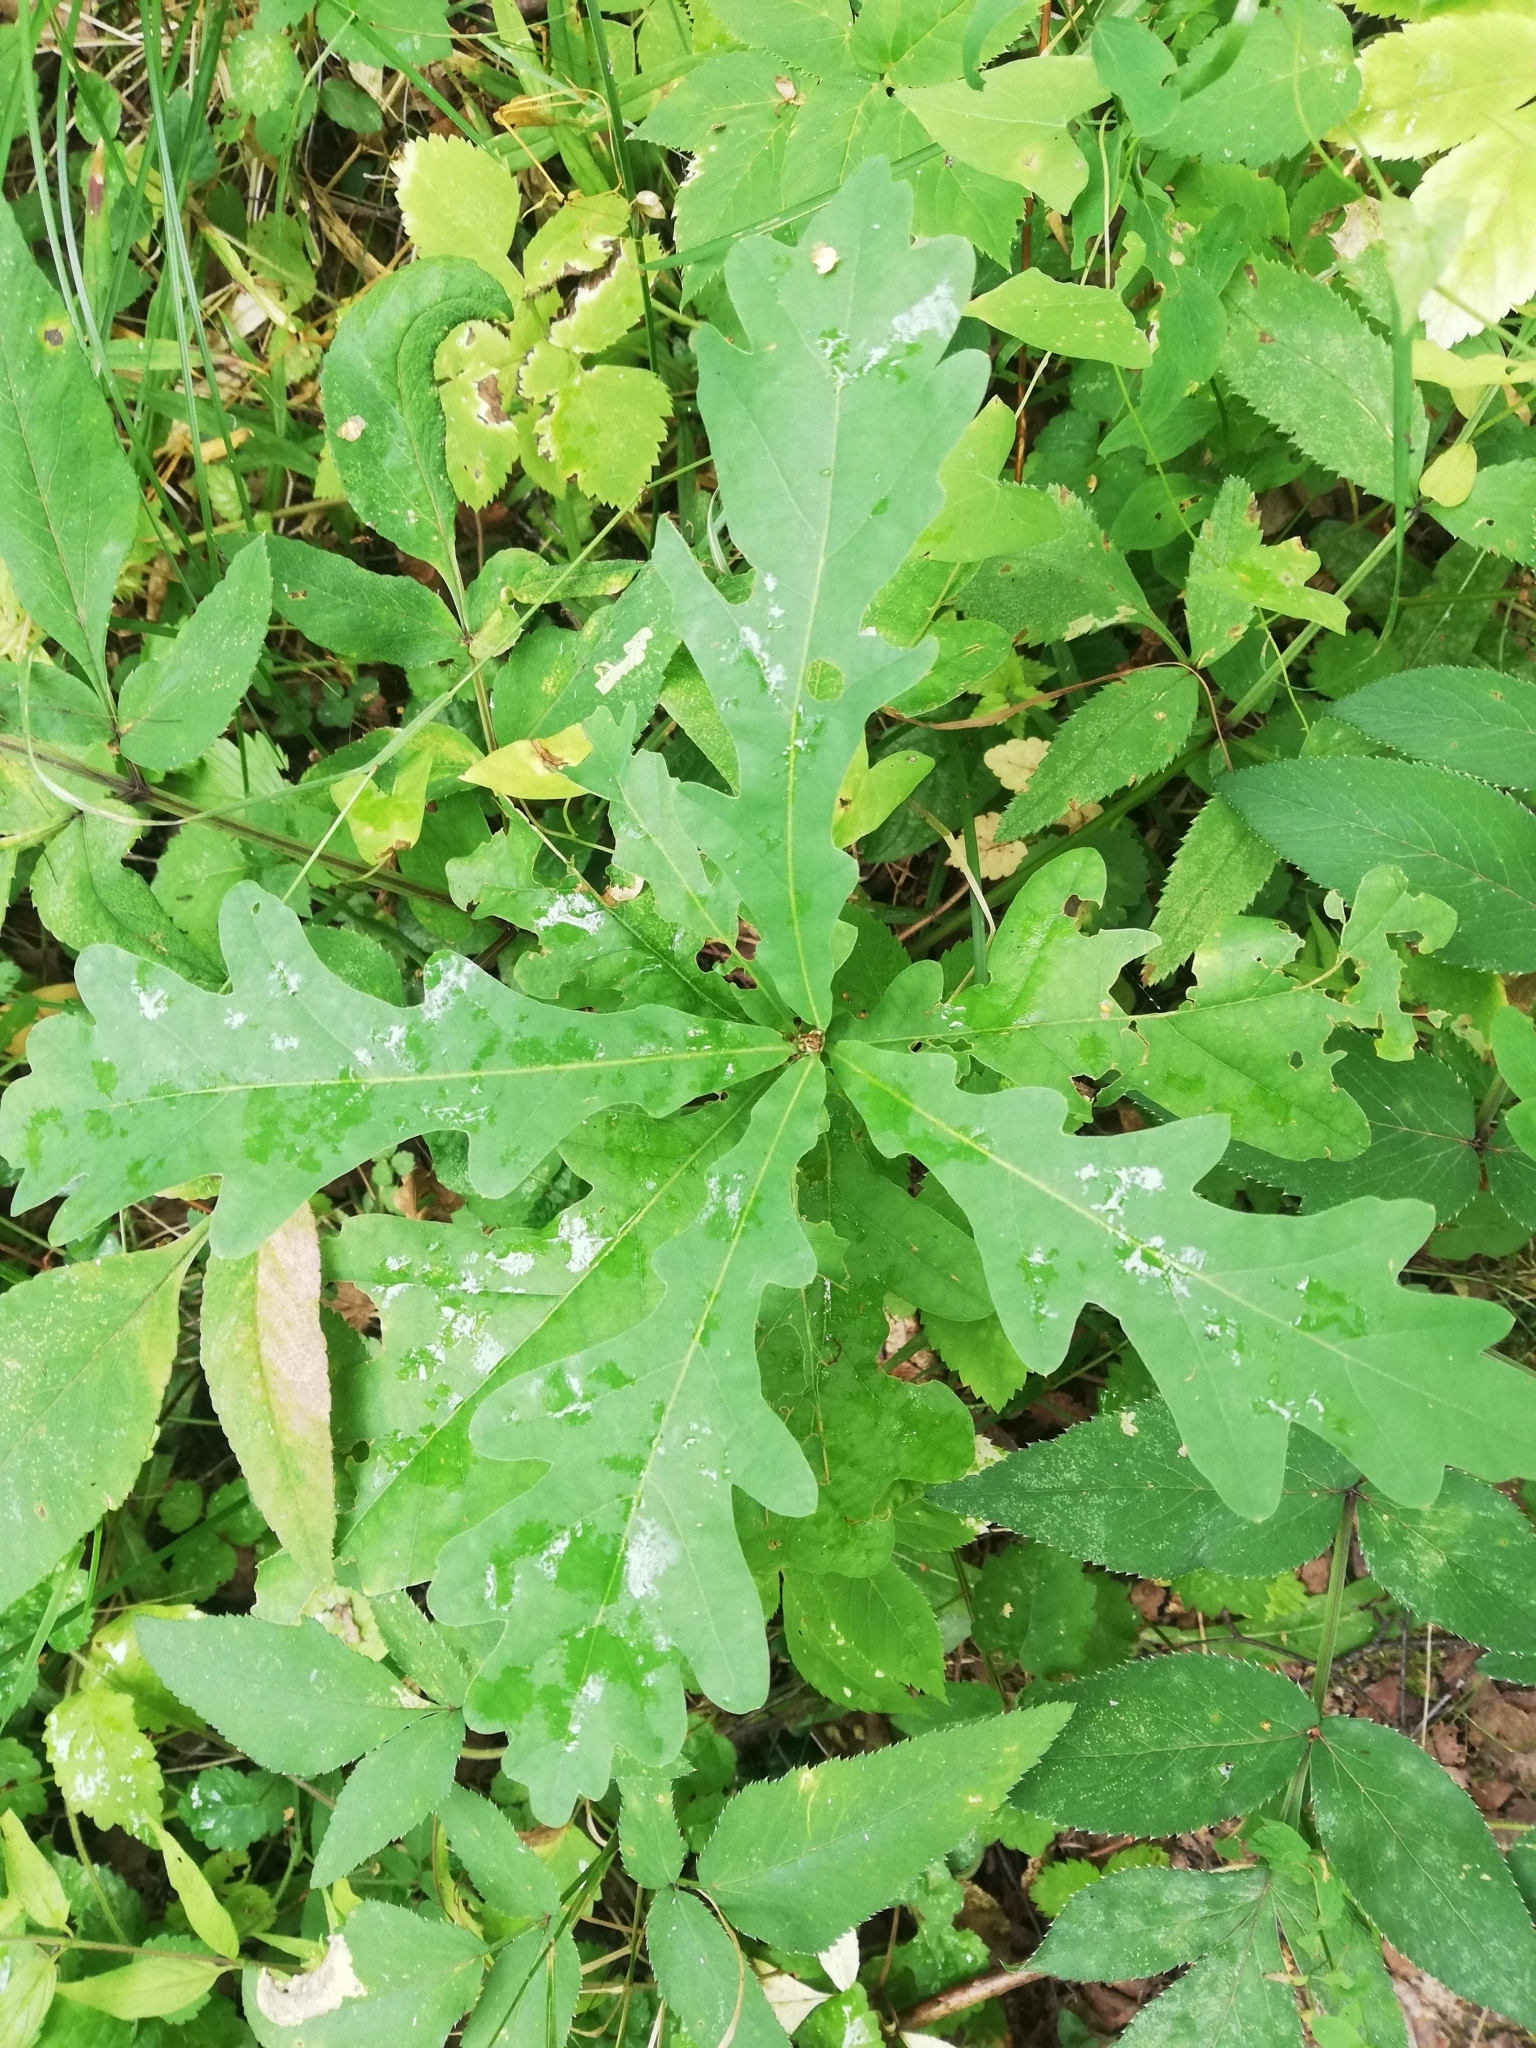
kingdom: Plantae
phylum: Tracheophyta
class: Magnoliopsida
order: Fagales
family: Fagaceae
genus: Quercus
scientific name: Quercus robur
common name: Pedunculate oak
